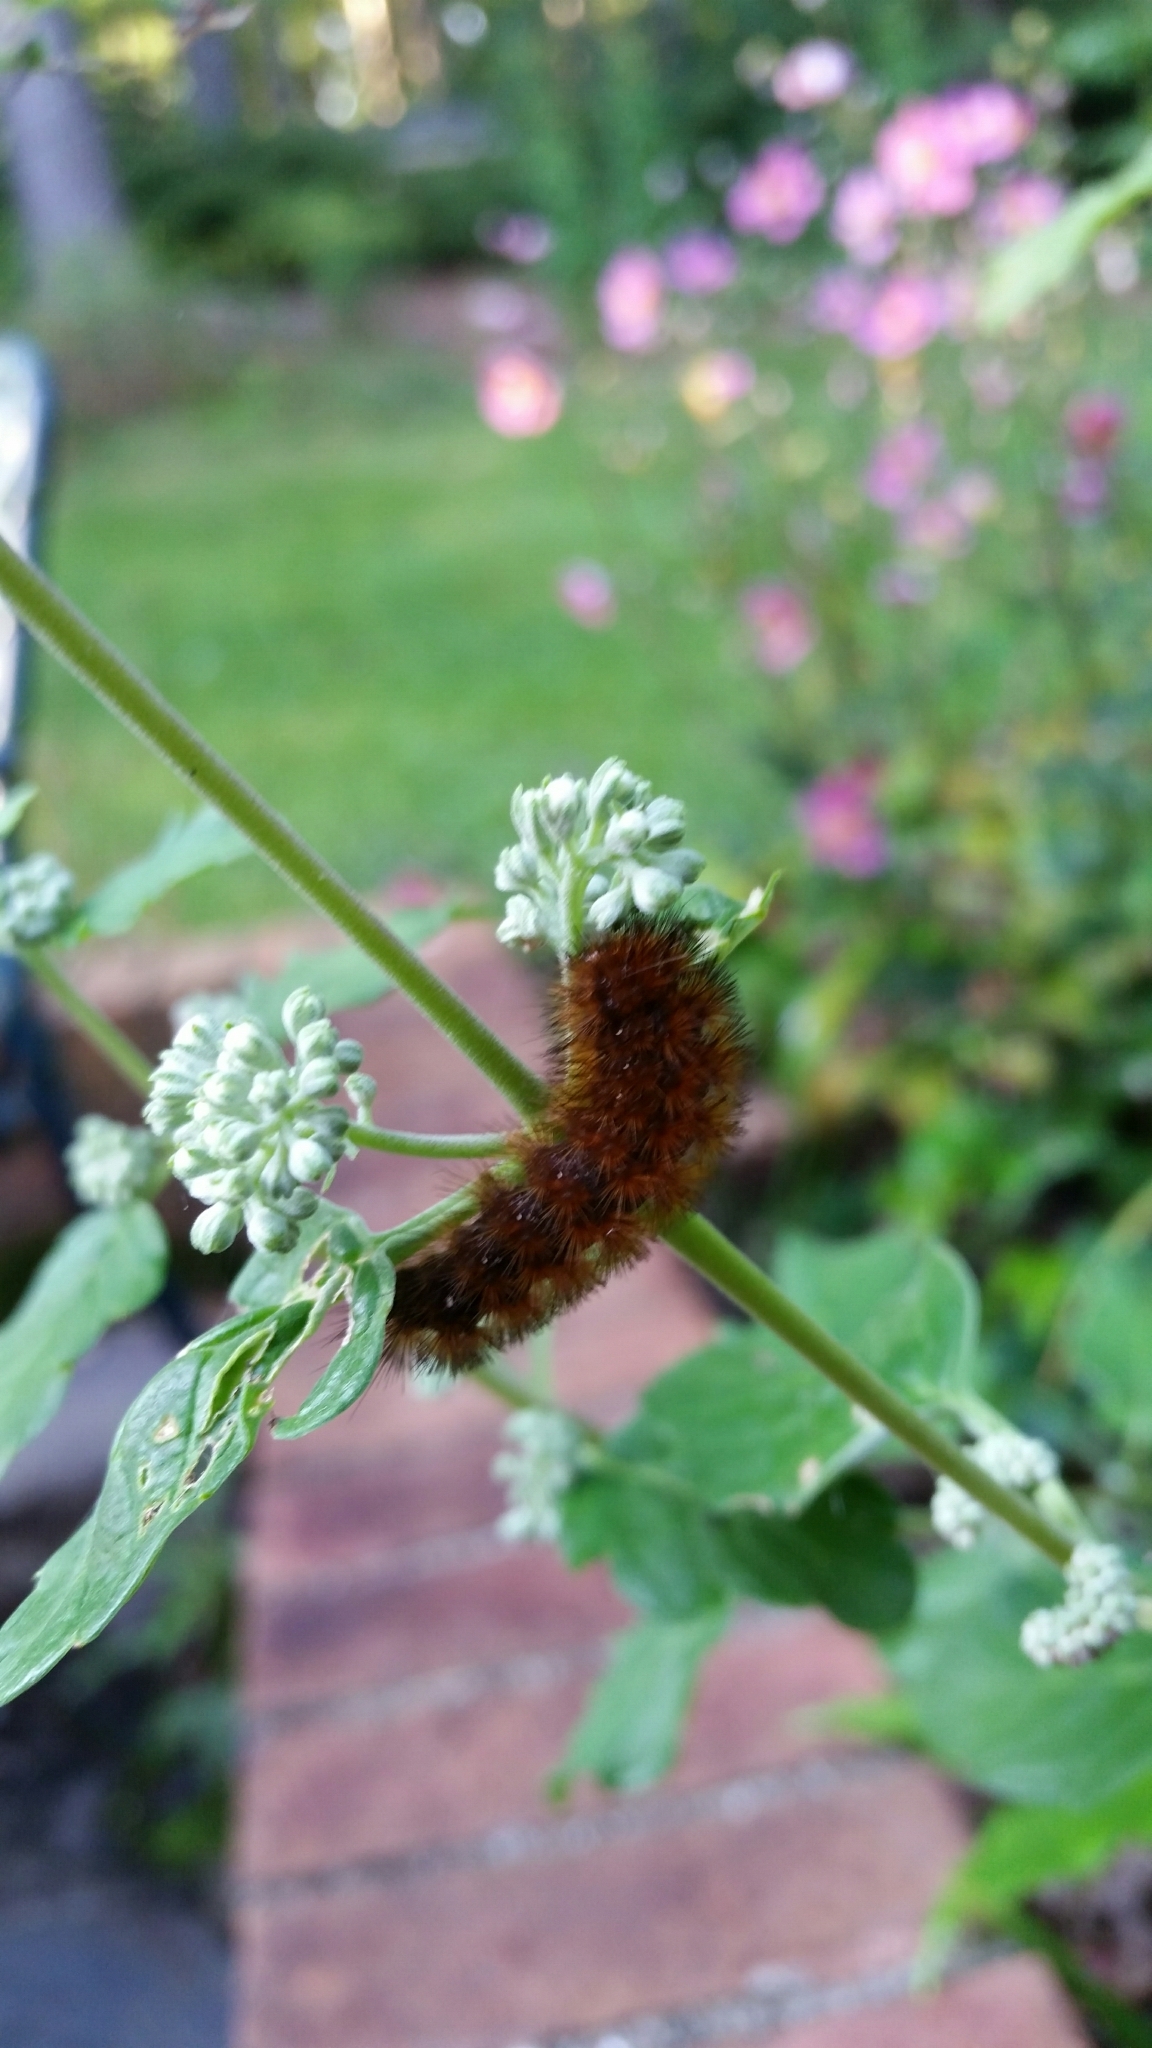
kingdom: Animalia
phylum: Arthropoda
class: Insecta
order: Lepidoptera
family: Erebidae
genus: Pyrrharctia
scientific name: Pyrrharctia isabella
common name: Isabella tiger moth
